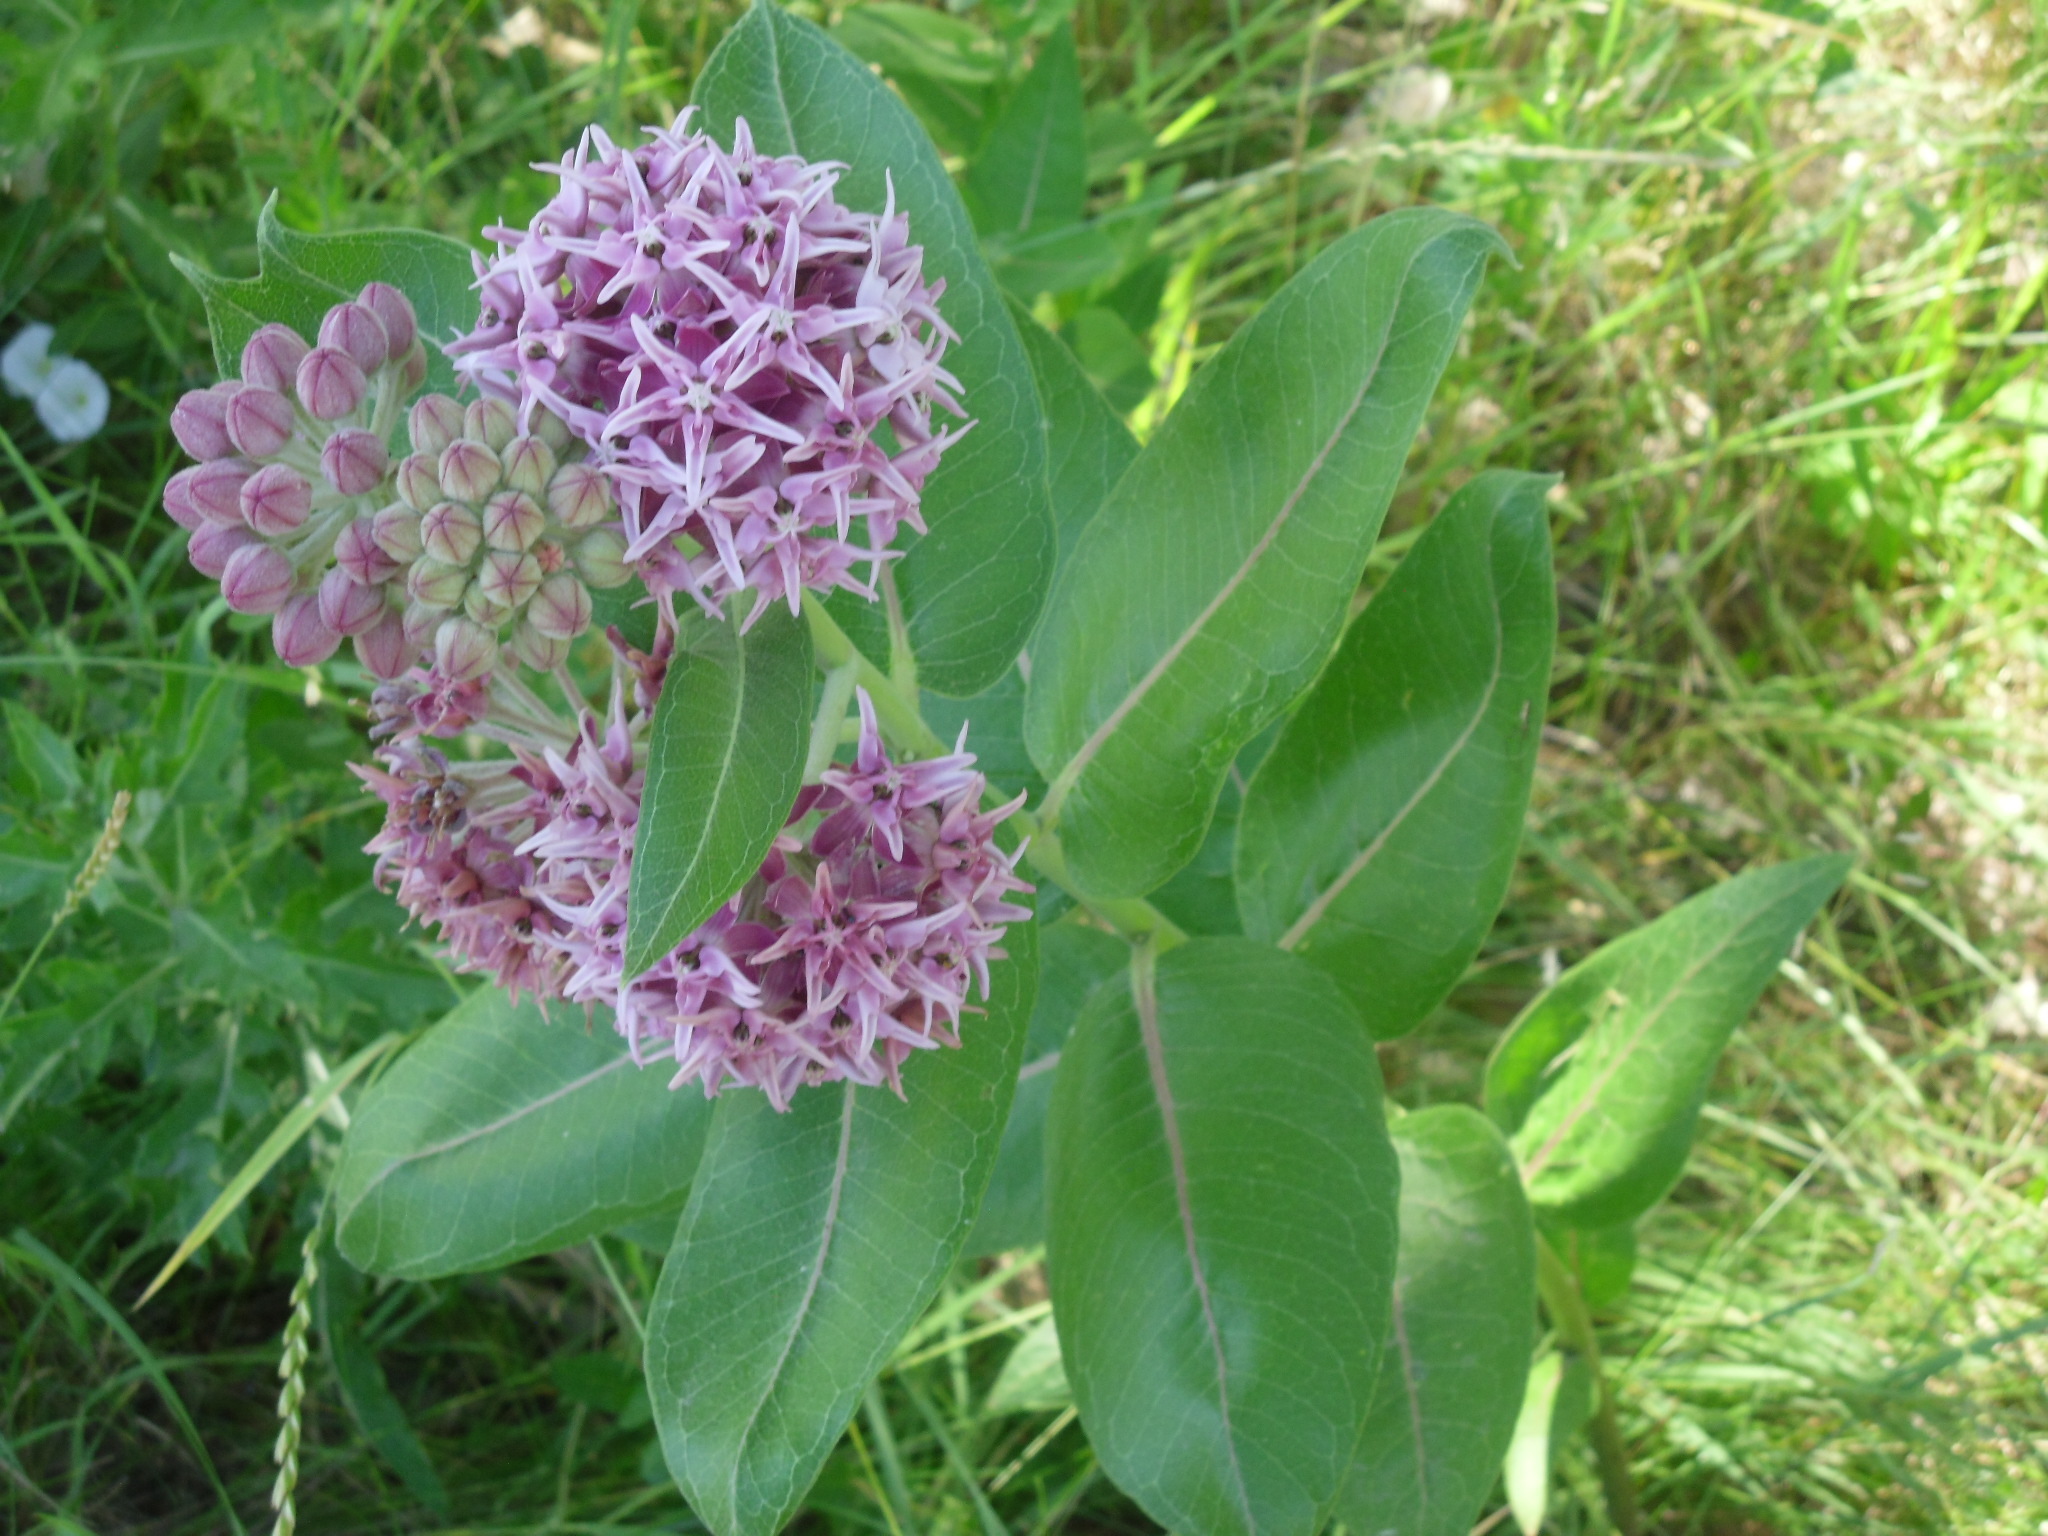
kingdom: Plantae
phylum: Tracheophyta
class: Magnoliopsida
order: Gentianales
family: Apocynaceae
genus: Asclepias
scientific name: Asclepias speciosa
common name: Showy milkweed
